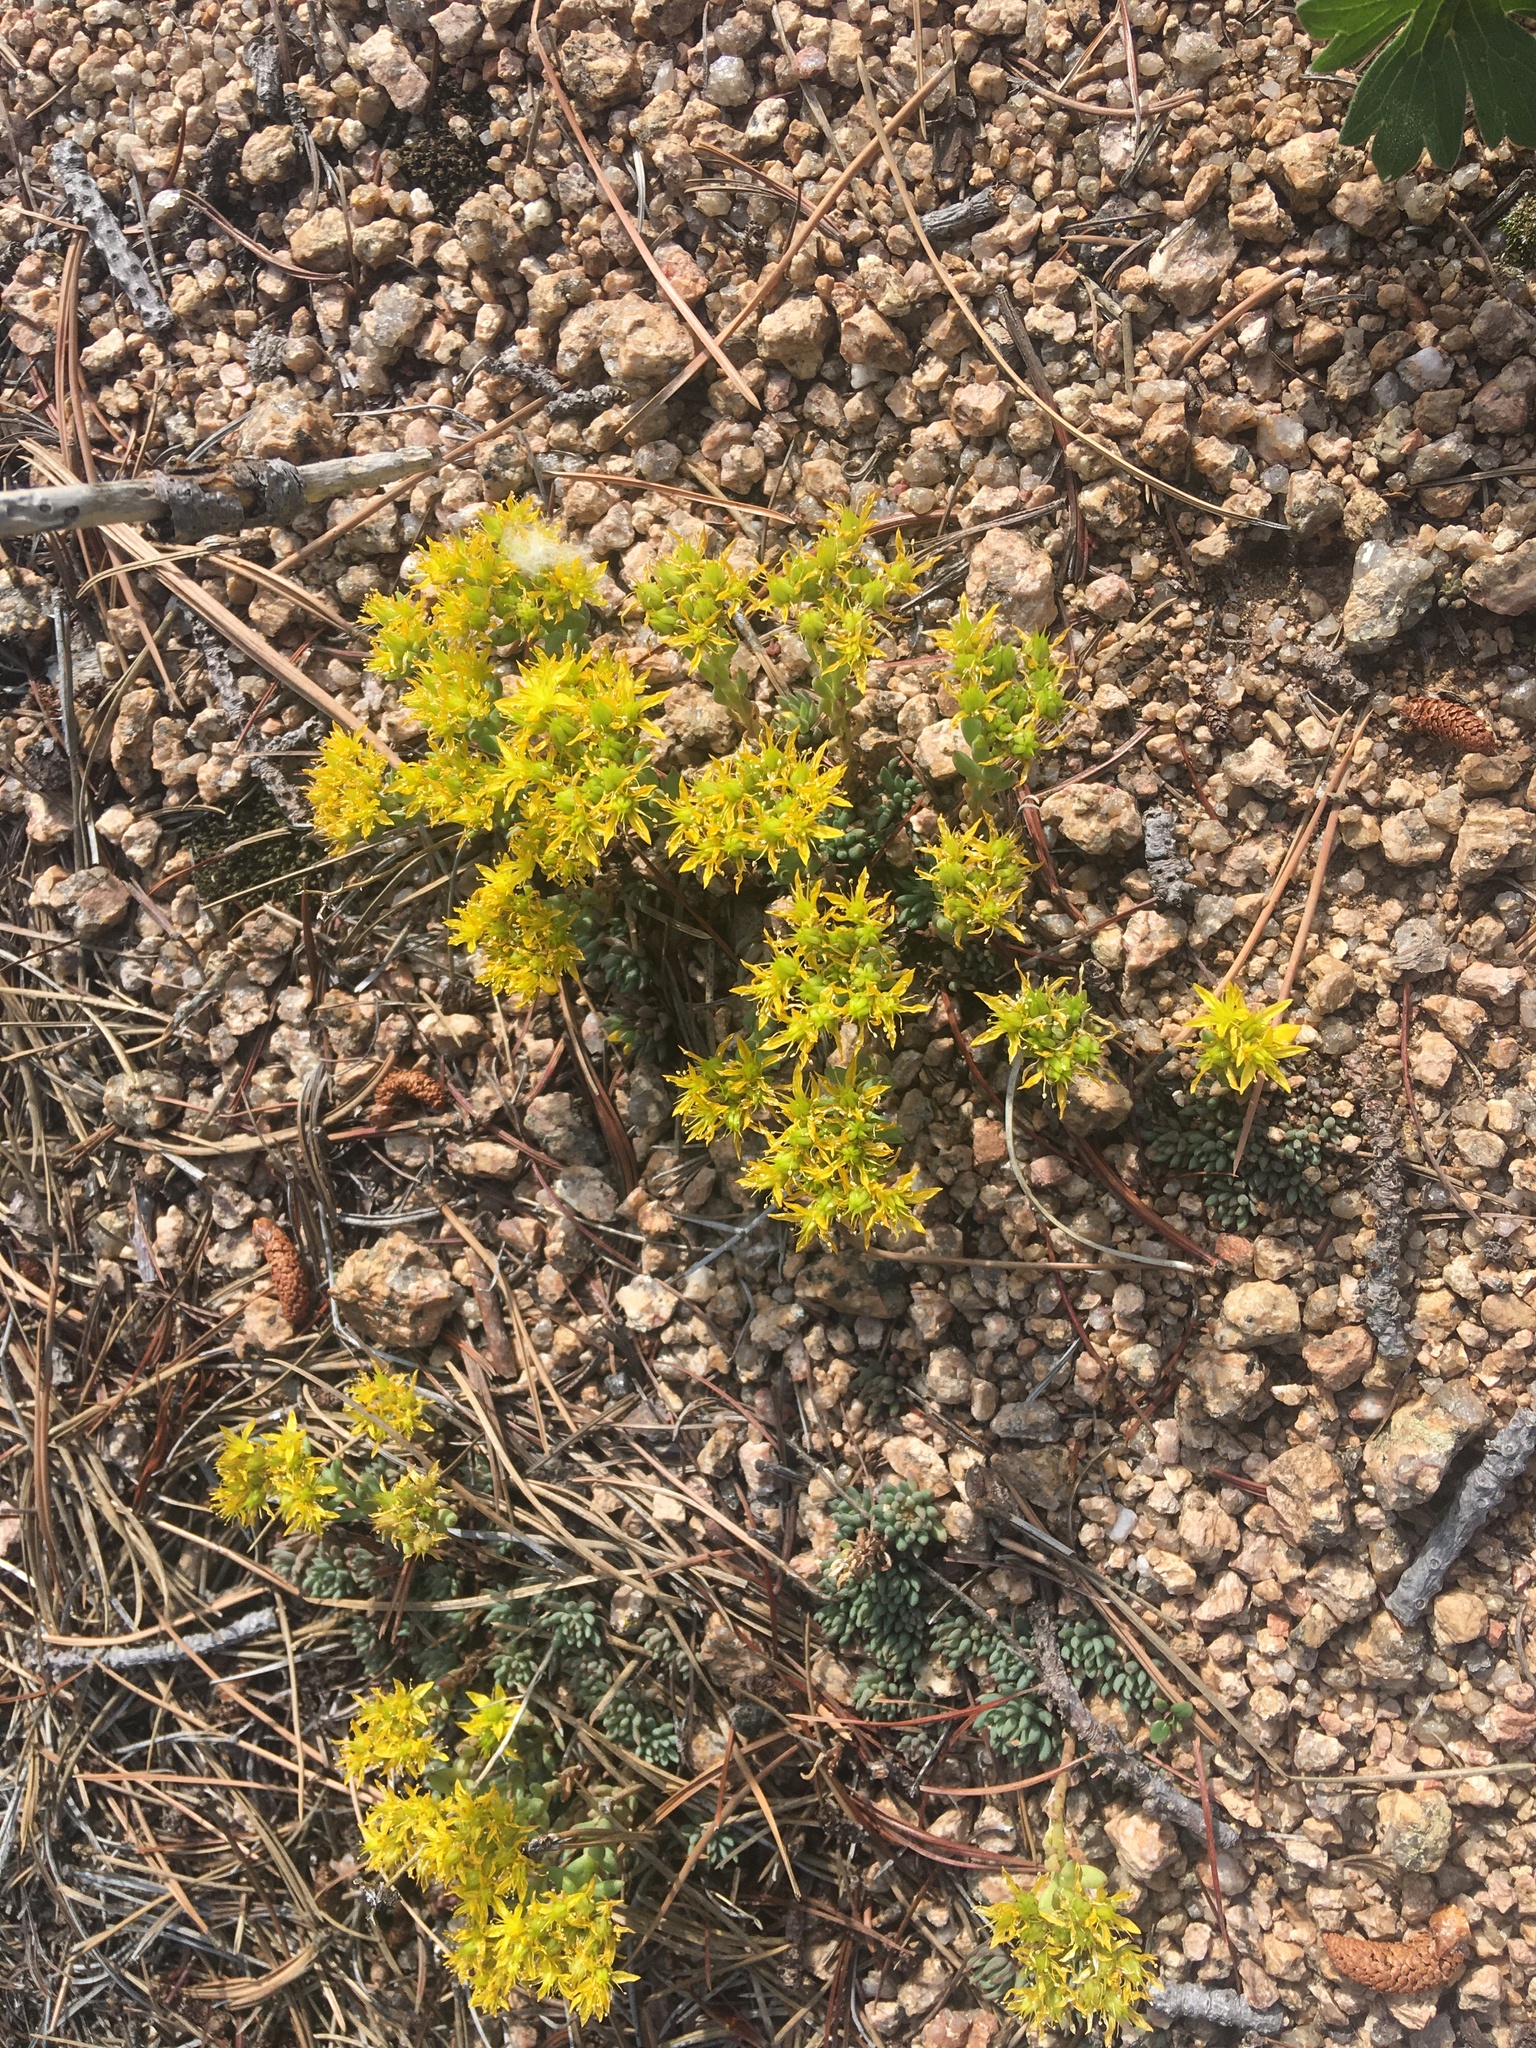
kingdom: Plantae
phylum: Tracheophyta
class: Magnoliopsida
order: Saxifragales
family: Crassulaceae
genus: Sedum
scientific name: Sedum lanceolatum
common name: Common stonecrop
